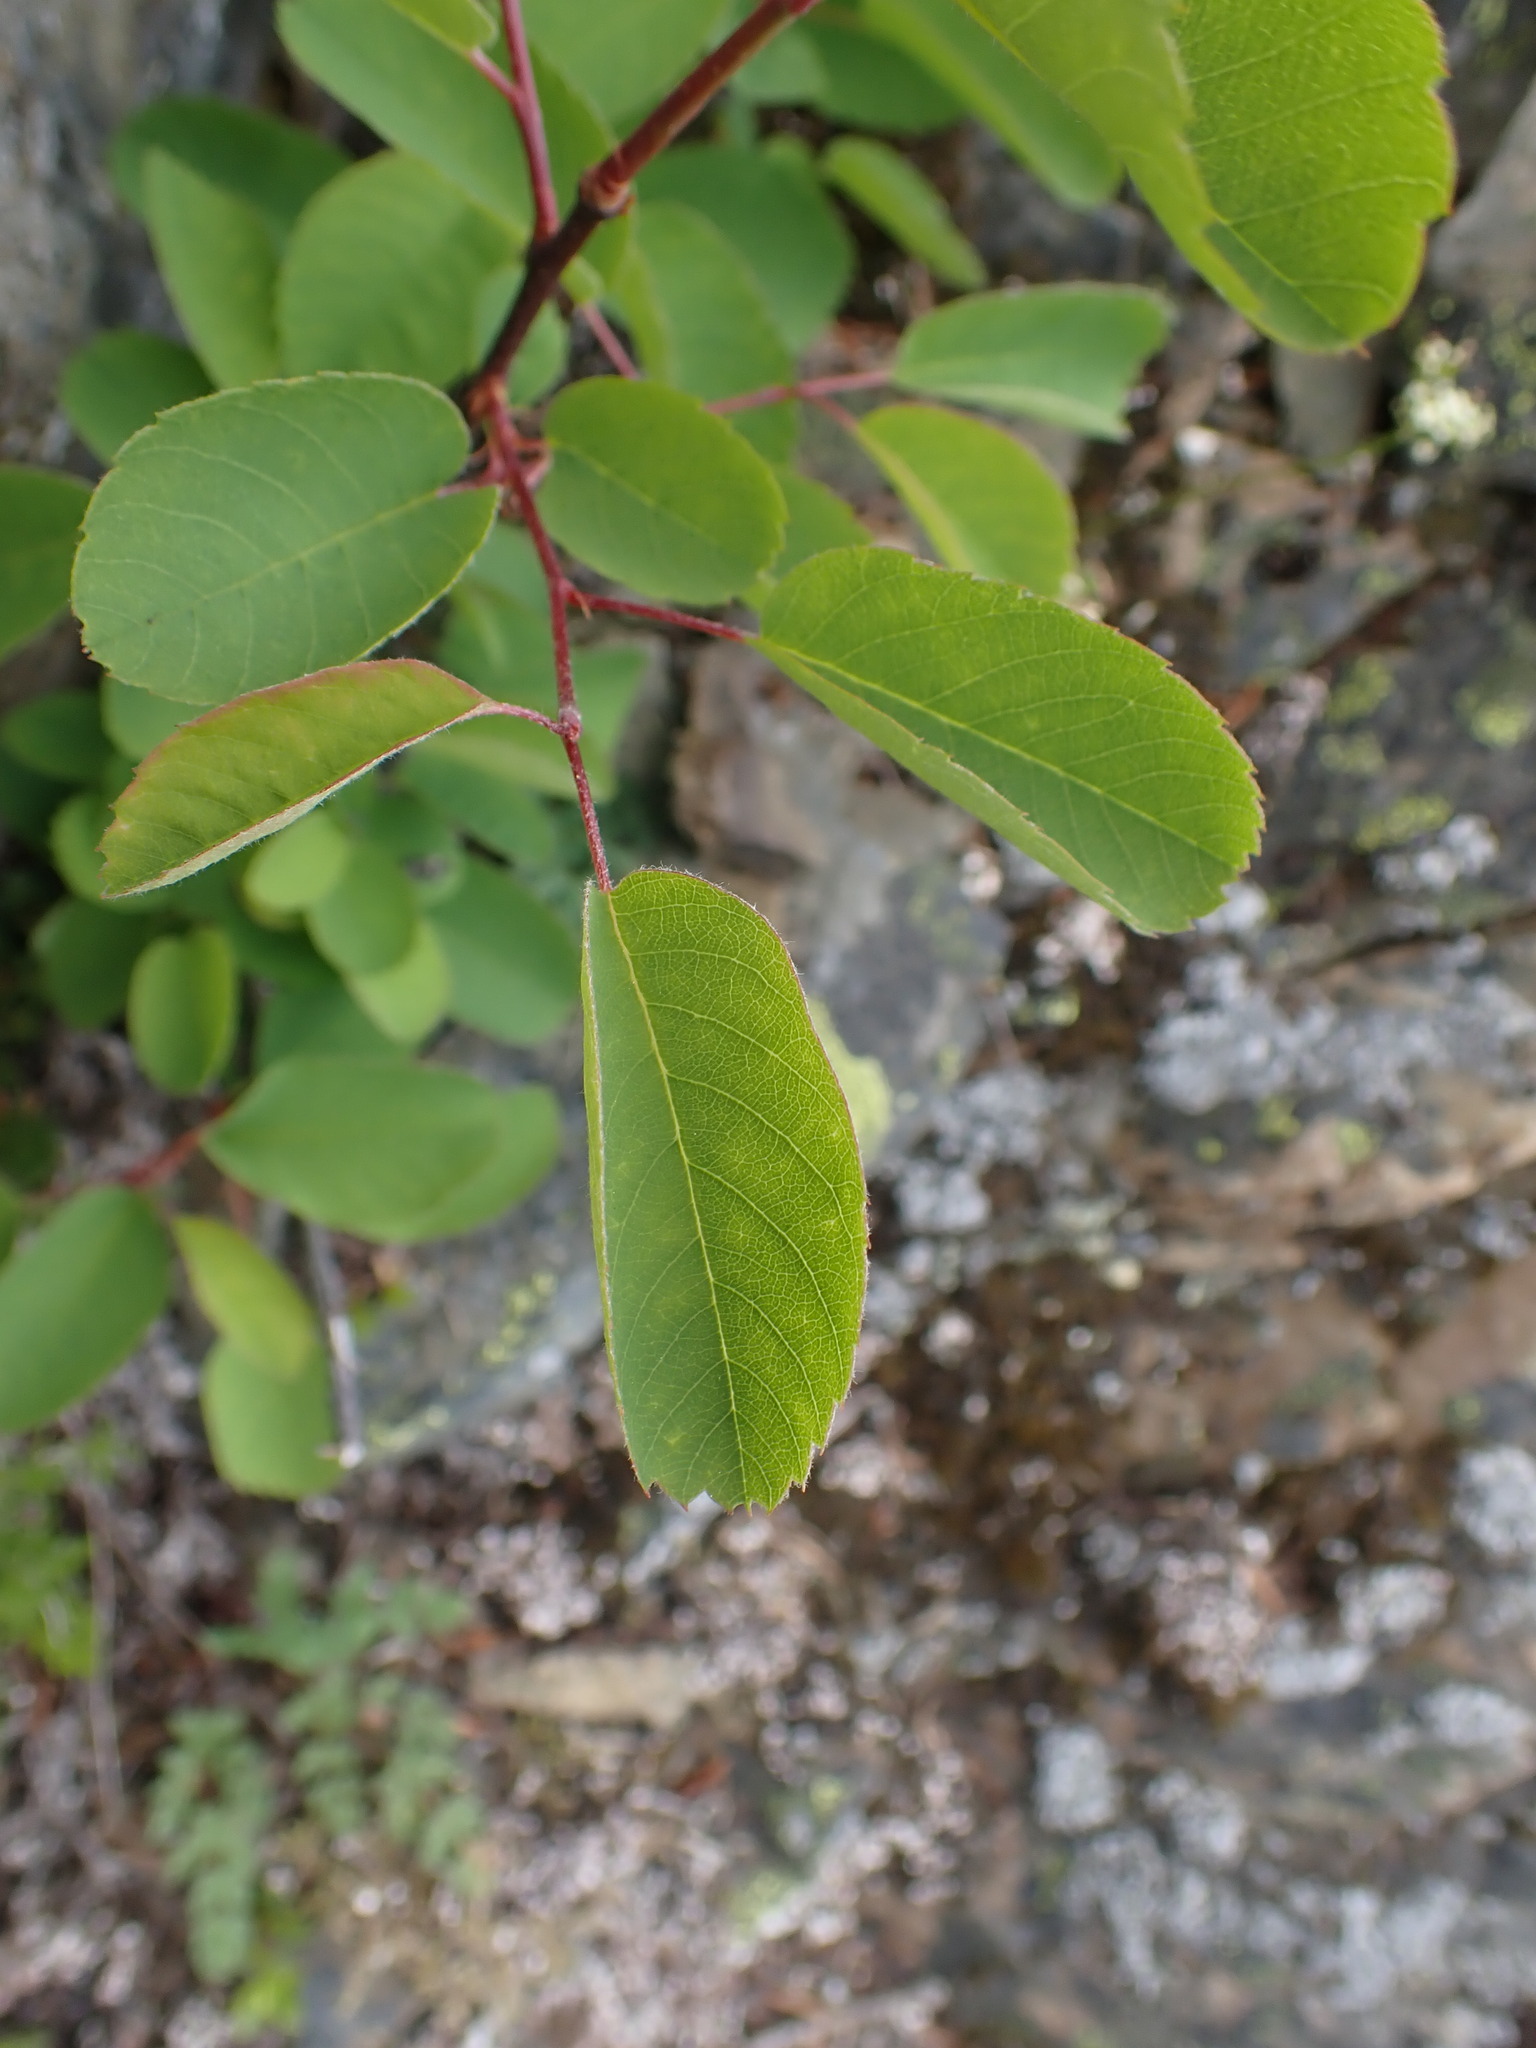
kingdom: Plantae
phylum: Tracheophyta
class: Magnoliopsida
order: Rosales
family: Rosaceae
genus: Amelanchier
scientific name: Amelanchier alnifolia
